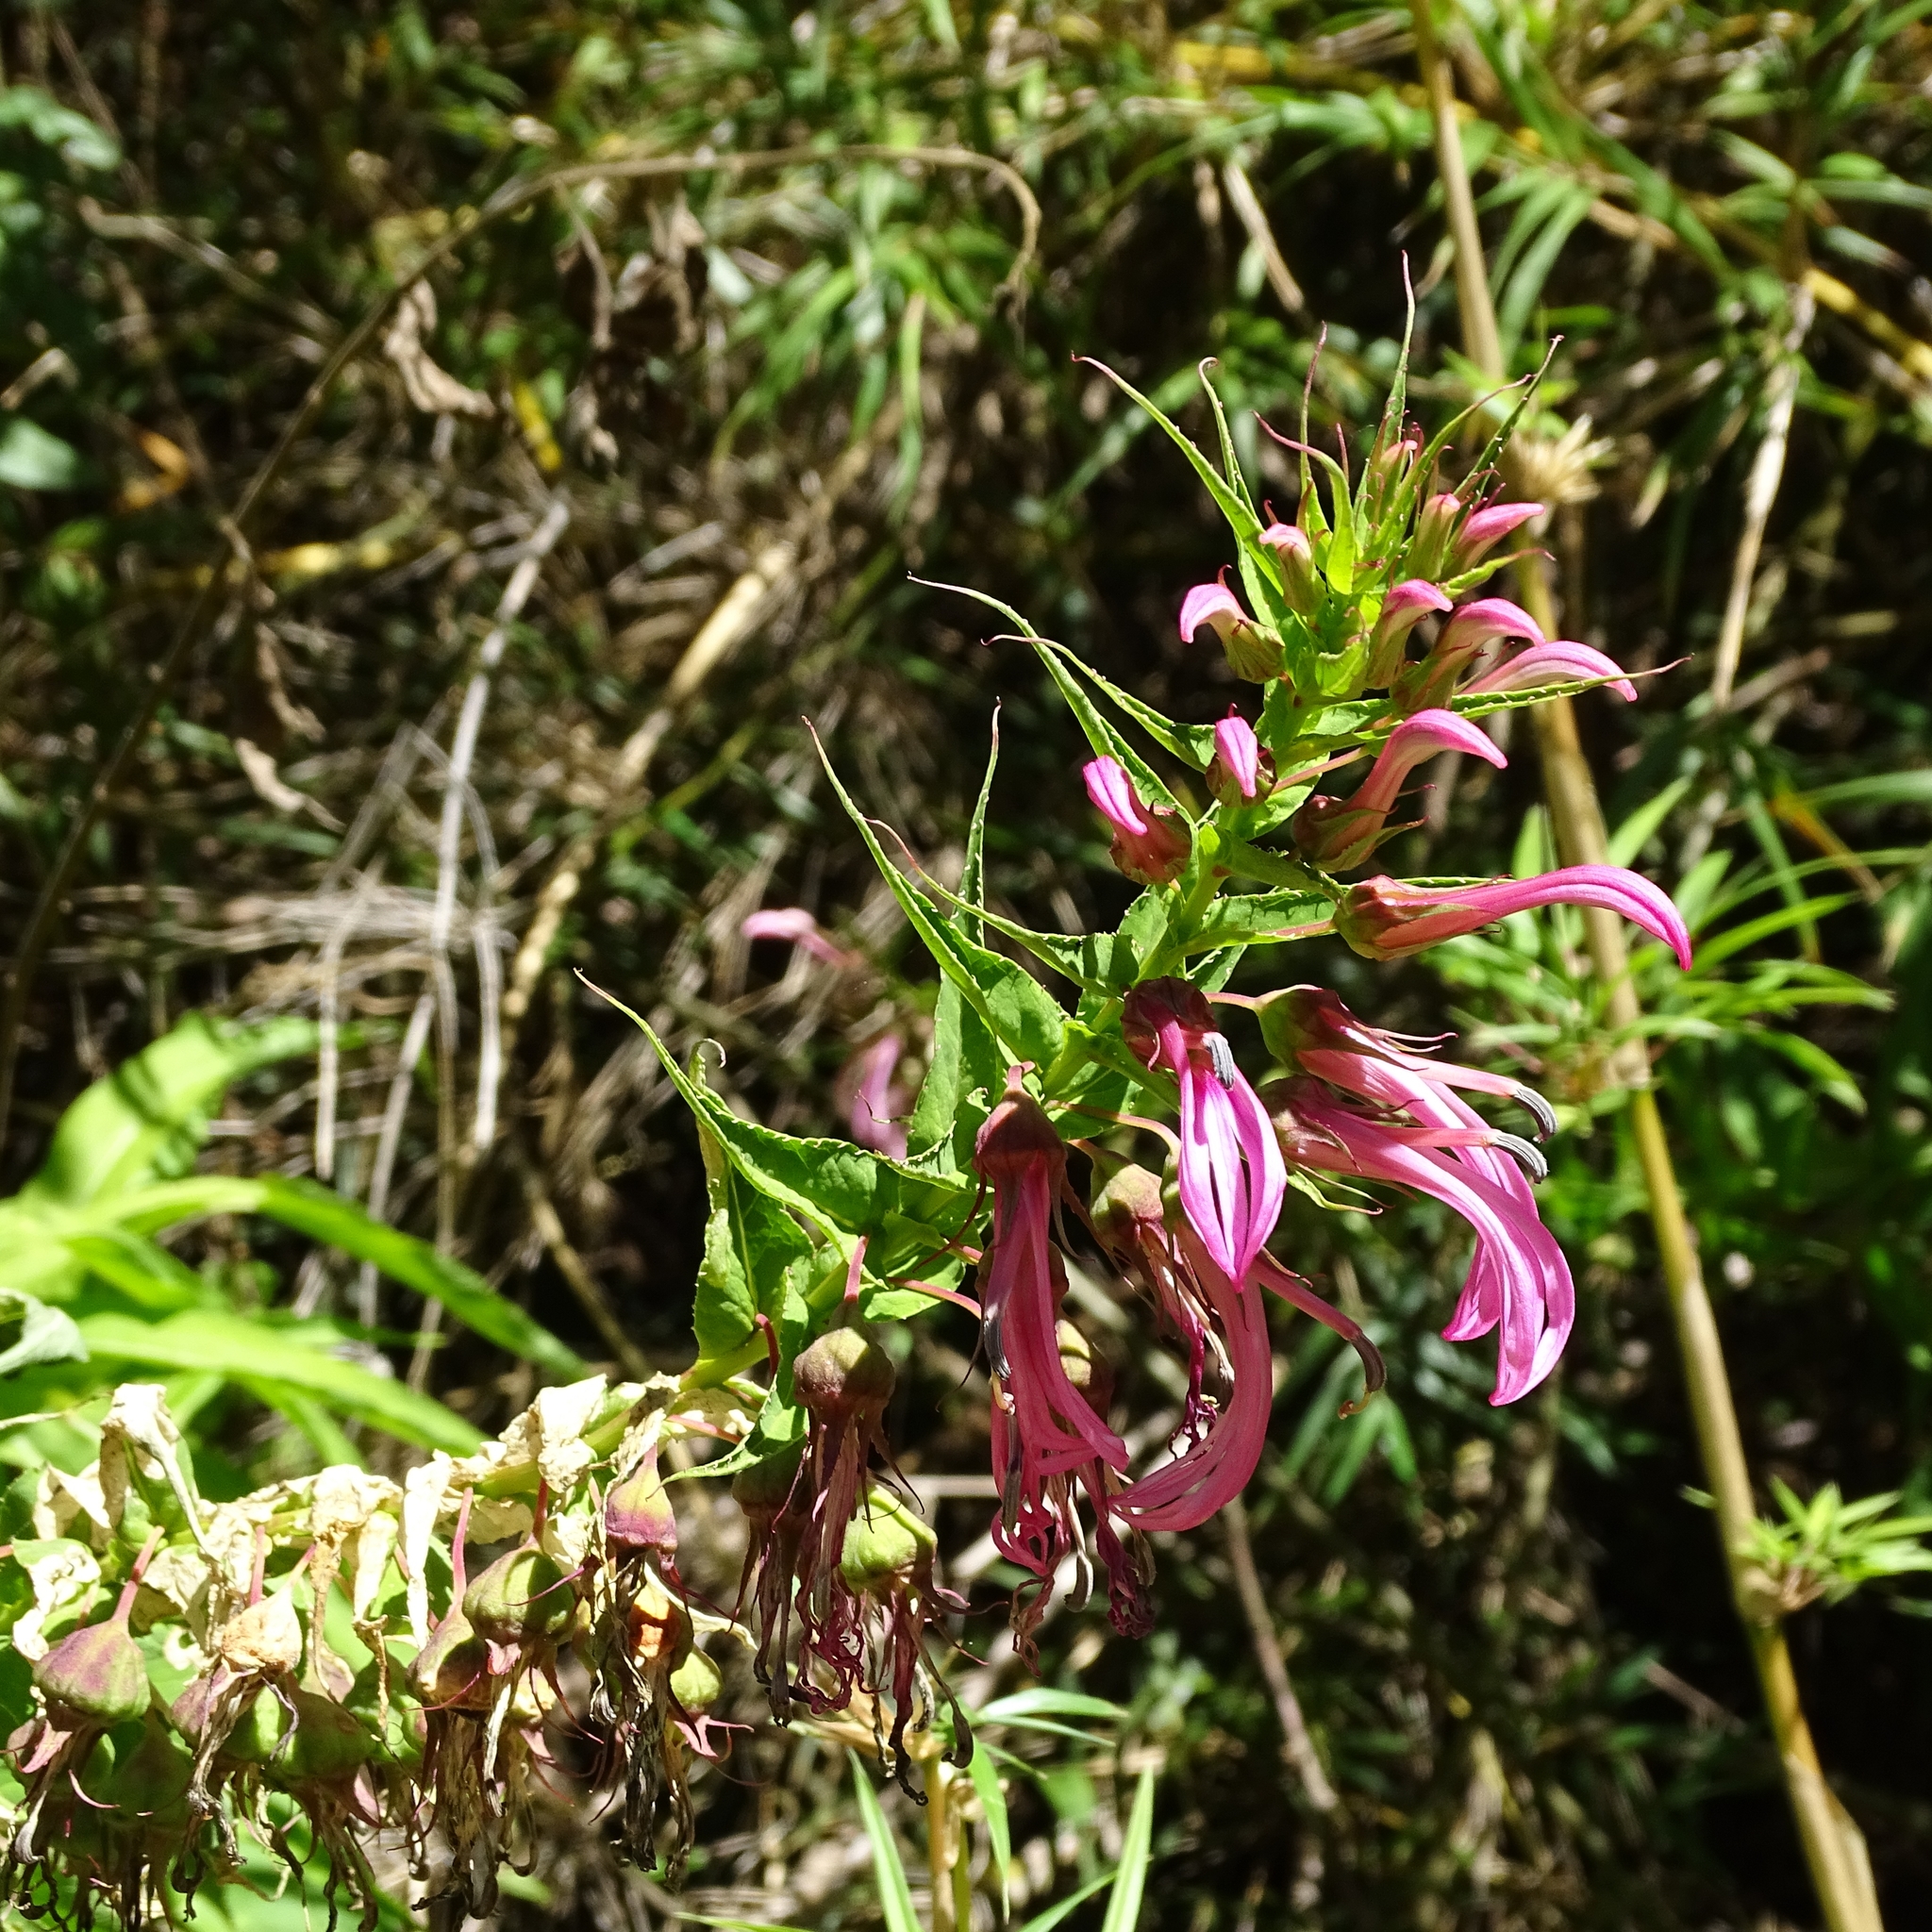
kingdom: Plantae
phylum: Tracheophyta
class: Magnoliopsida
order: Asterales
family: Campanulaceae
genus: Lobelia
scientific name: Lobelia bridgesii
